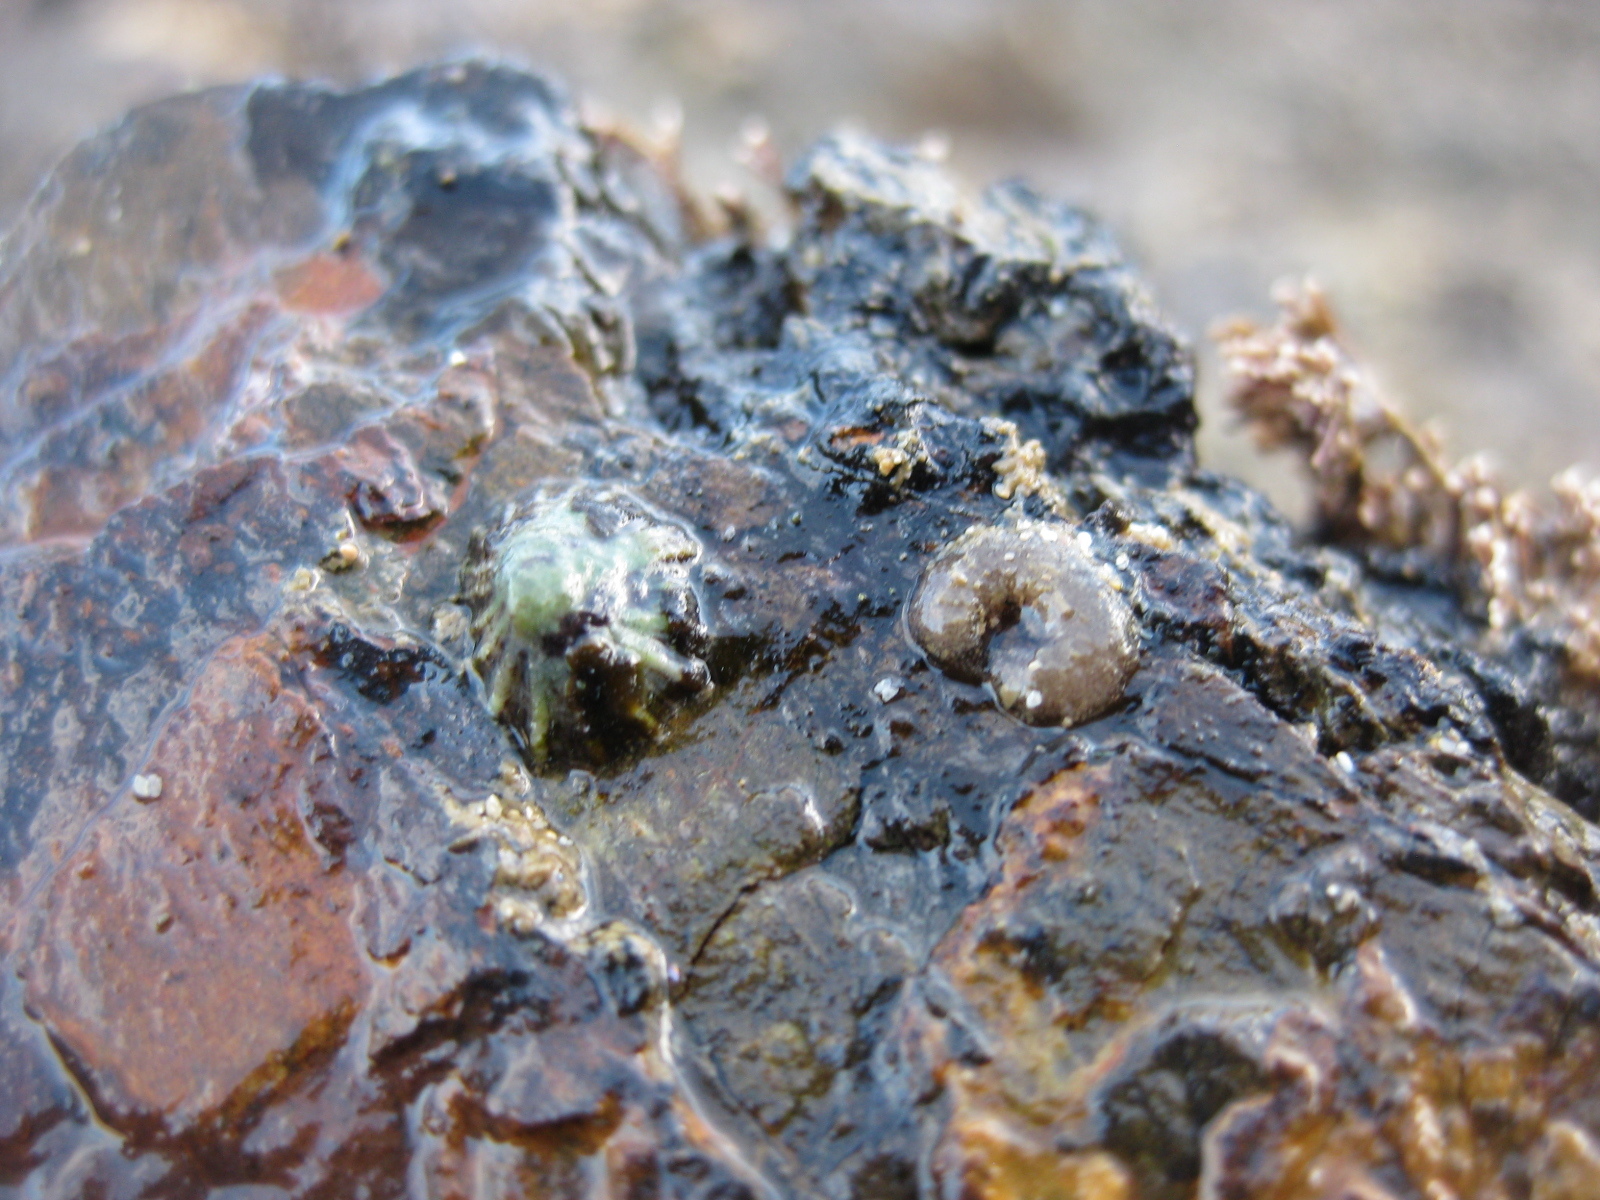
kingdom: Animalia
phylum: Mollusca
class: Gastropoda
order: Siphonariida
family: Siphonariidae
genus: Siphonaria
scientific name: Siphonaria australis
